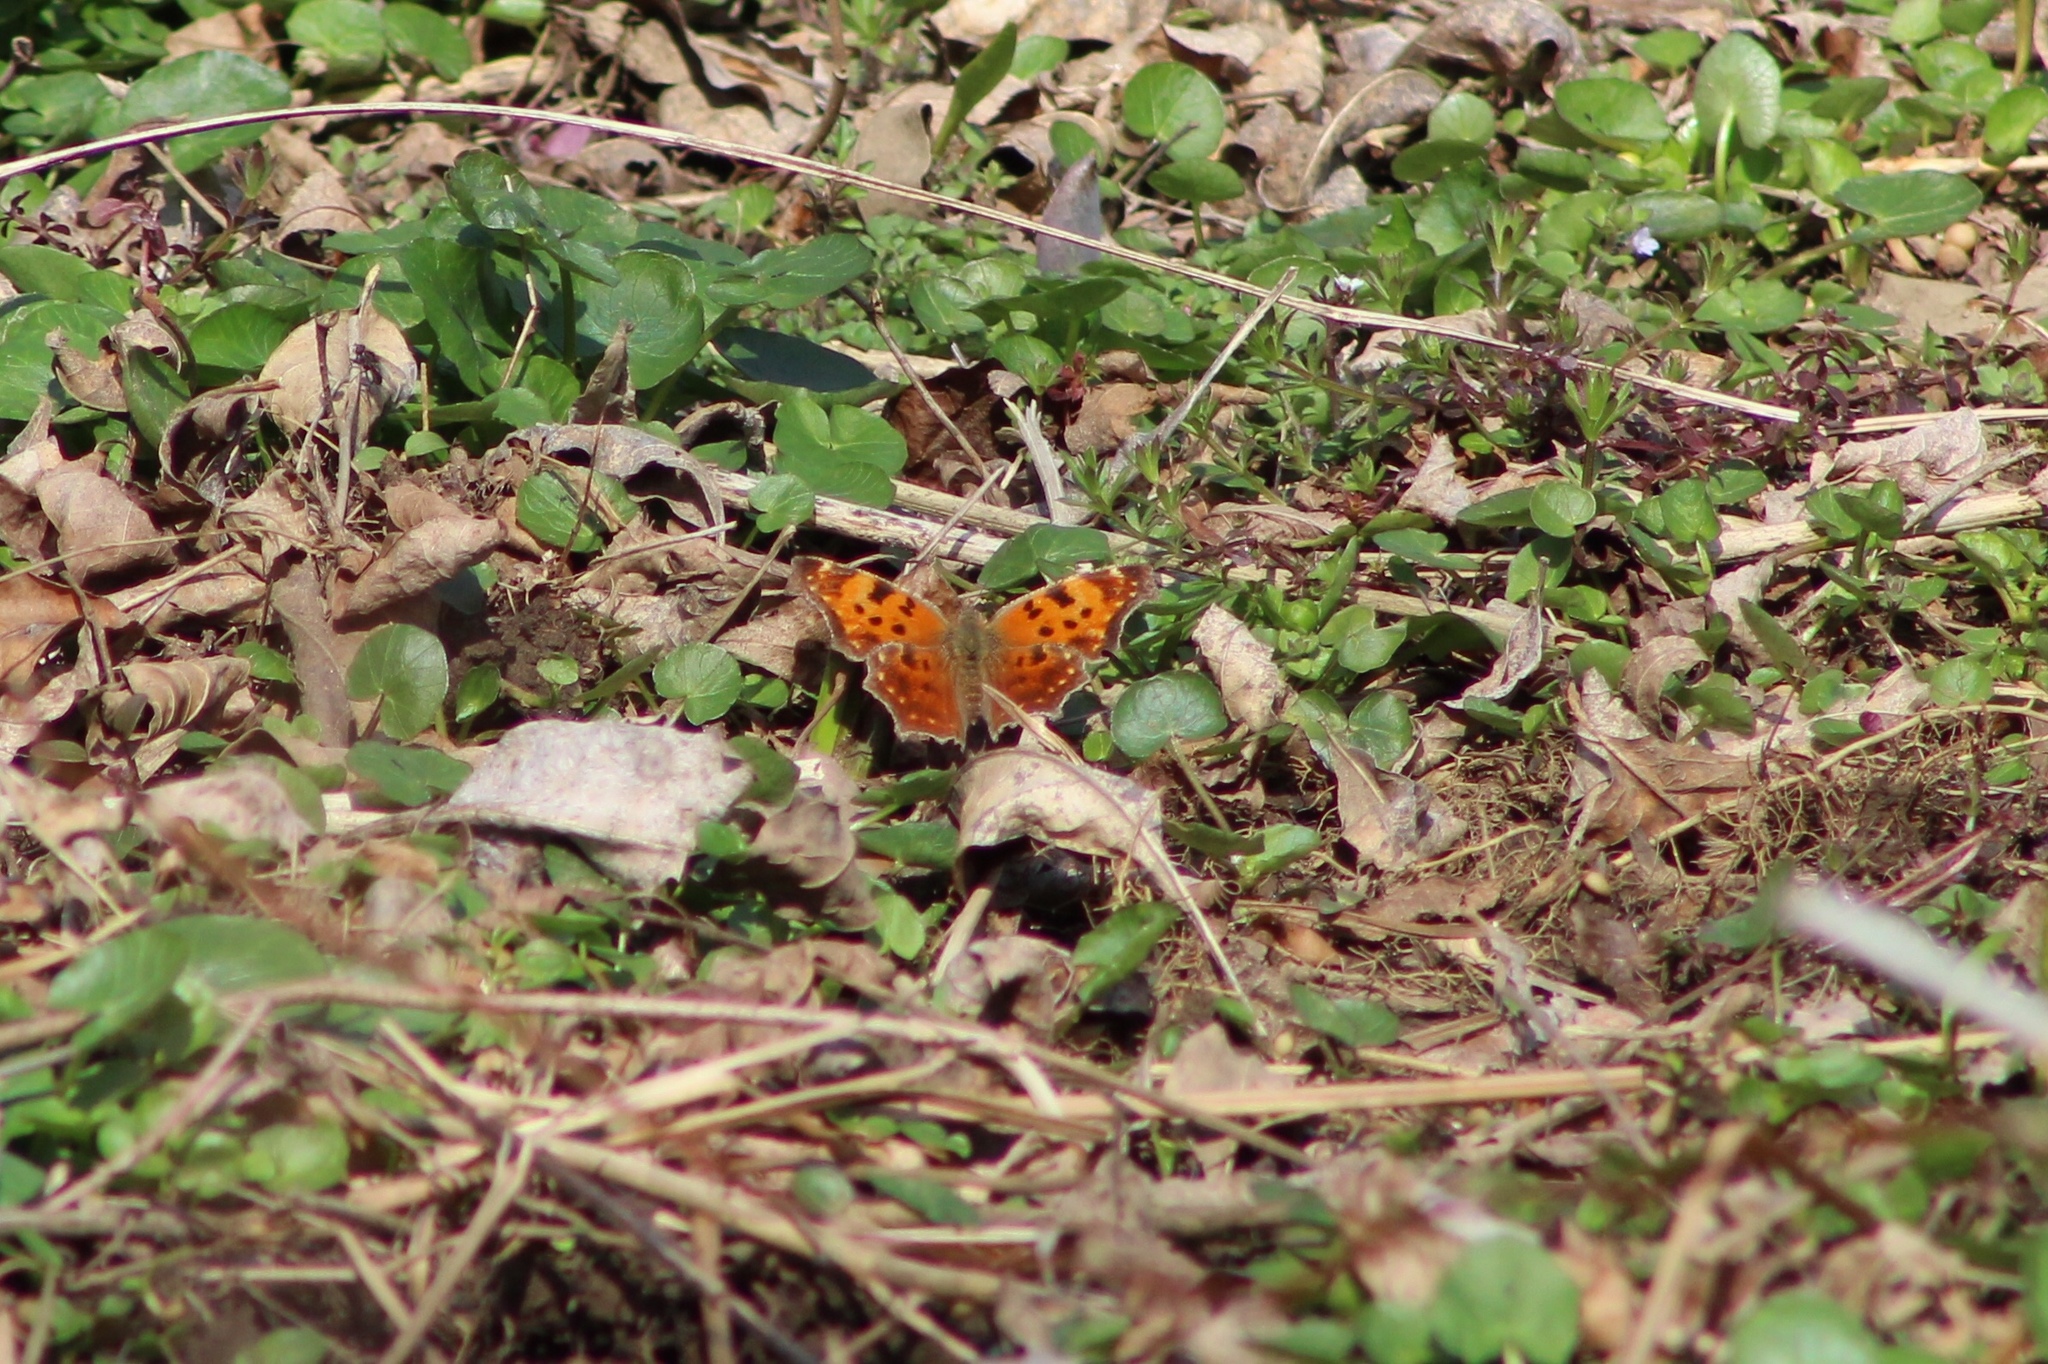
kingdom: Animalia
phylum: Arthropoda
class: Insecta
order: Lepidoptera
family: Nymphalidae
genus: Polygonia
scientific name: Polygonia comma
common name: Eastern comma
